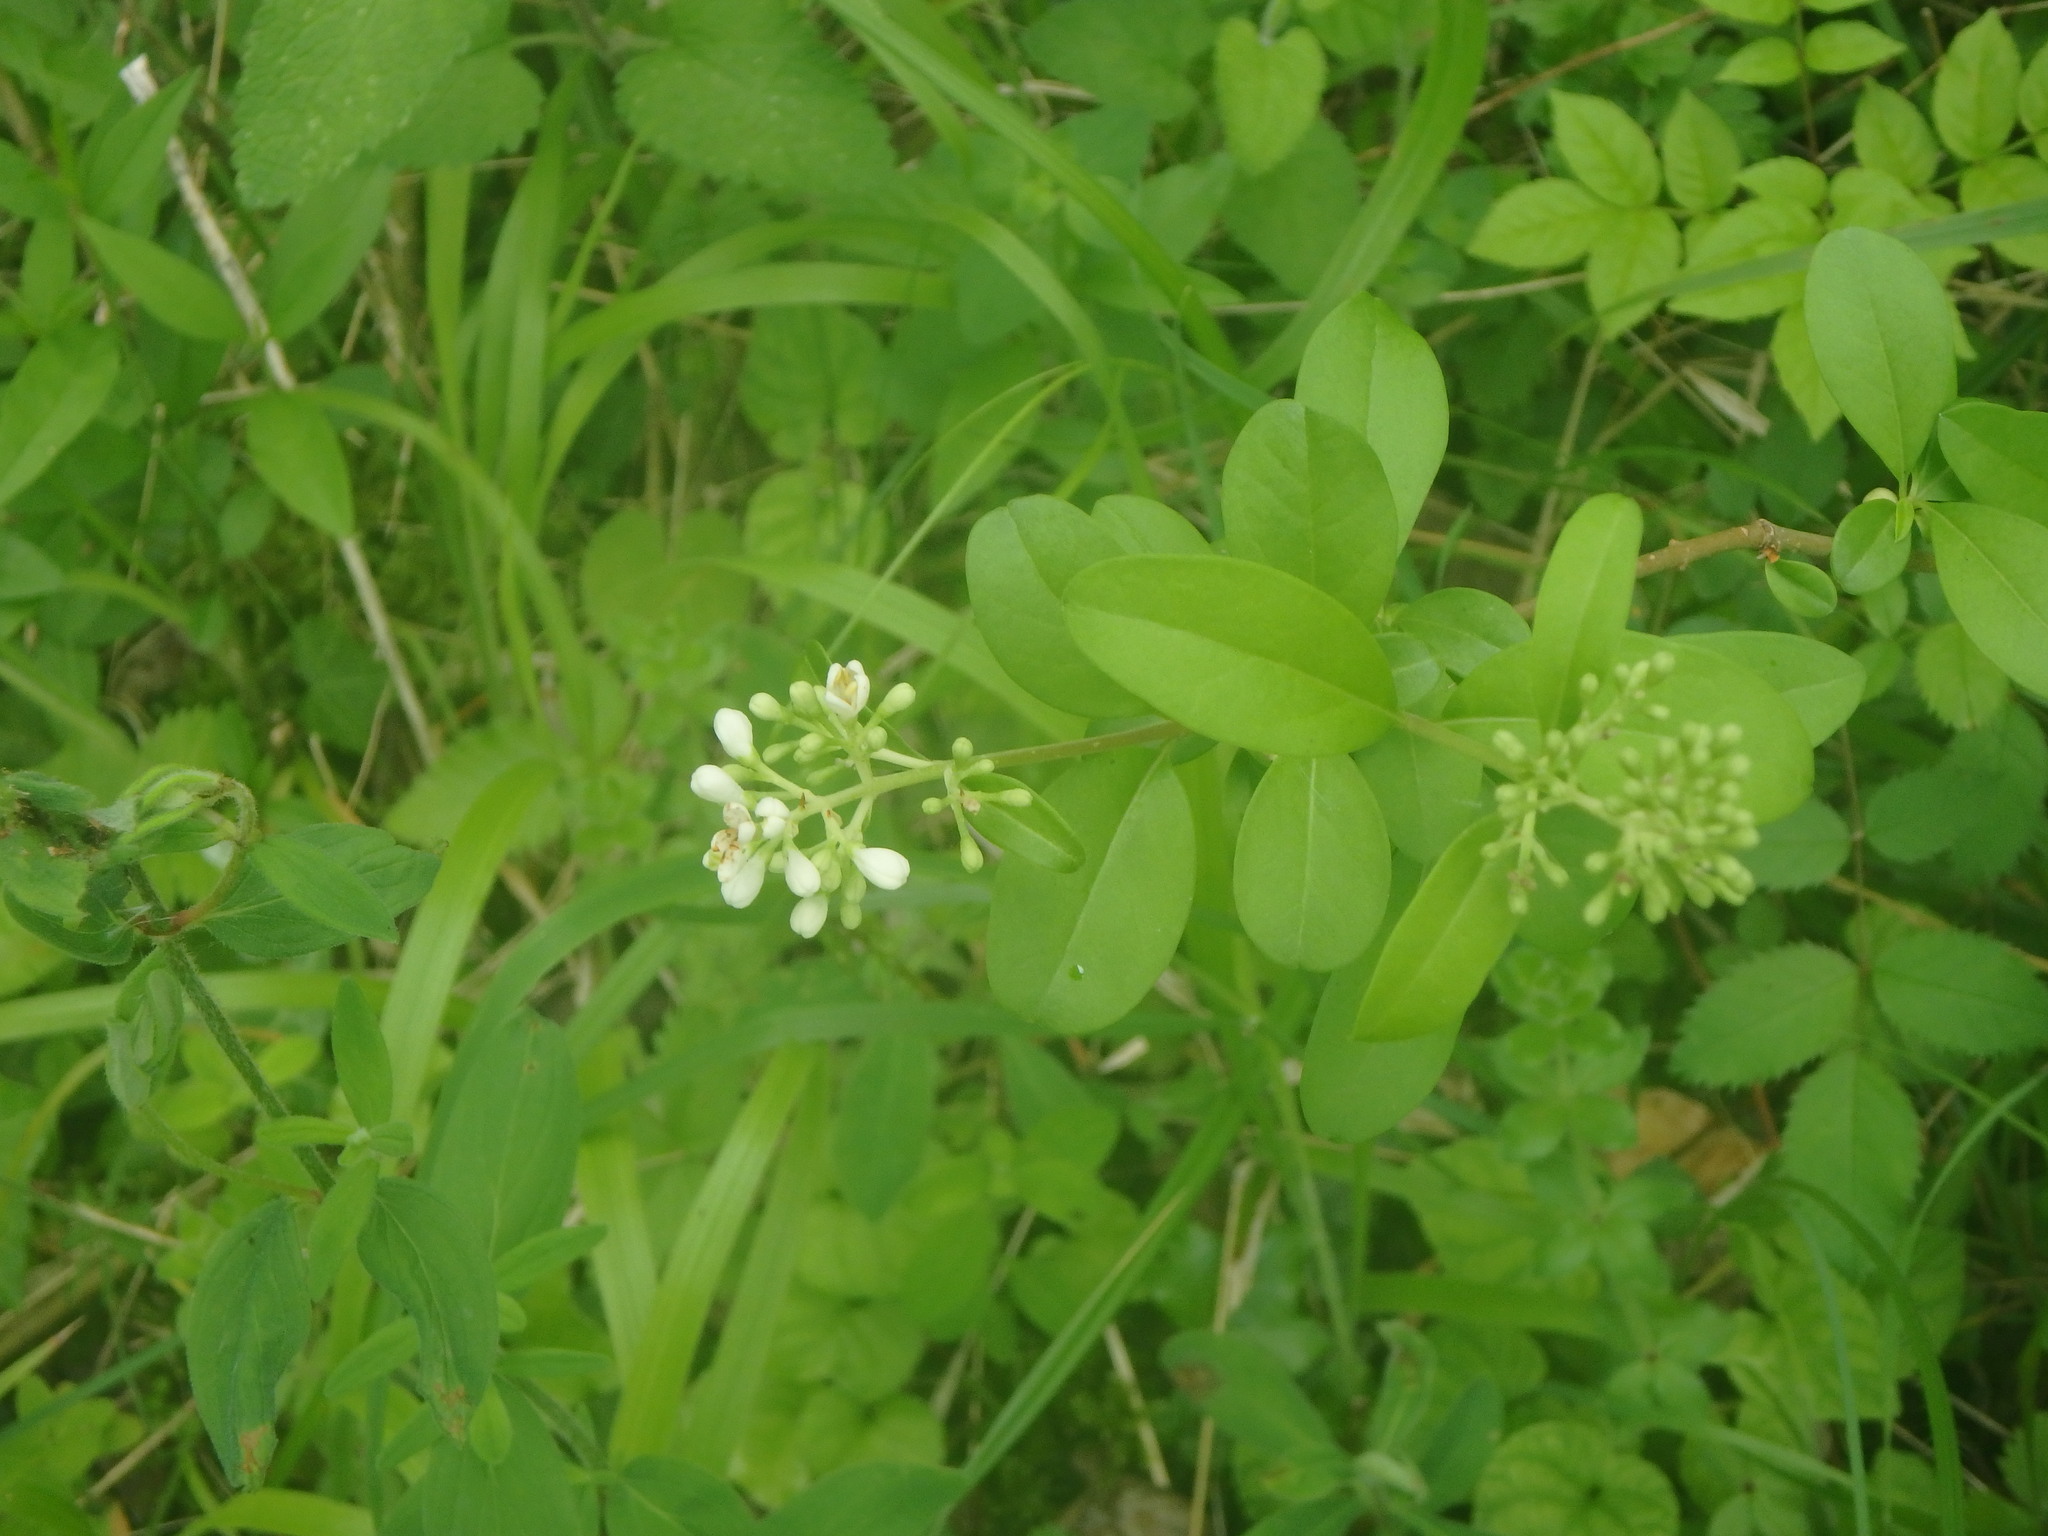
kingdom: Plantae
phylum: Tracheophyta
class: Magnoliopsida
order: Lamiales
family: Oleaceae
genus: Ligustrum
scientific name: Ligustrum vulgare
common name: Wild privet
